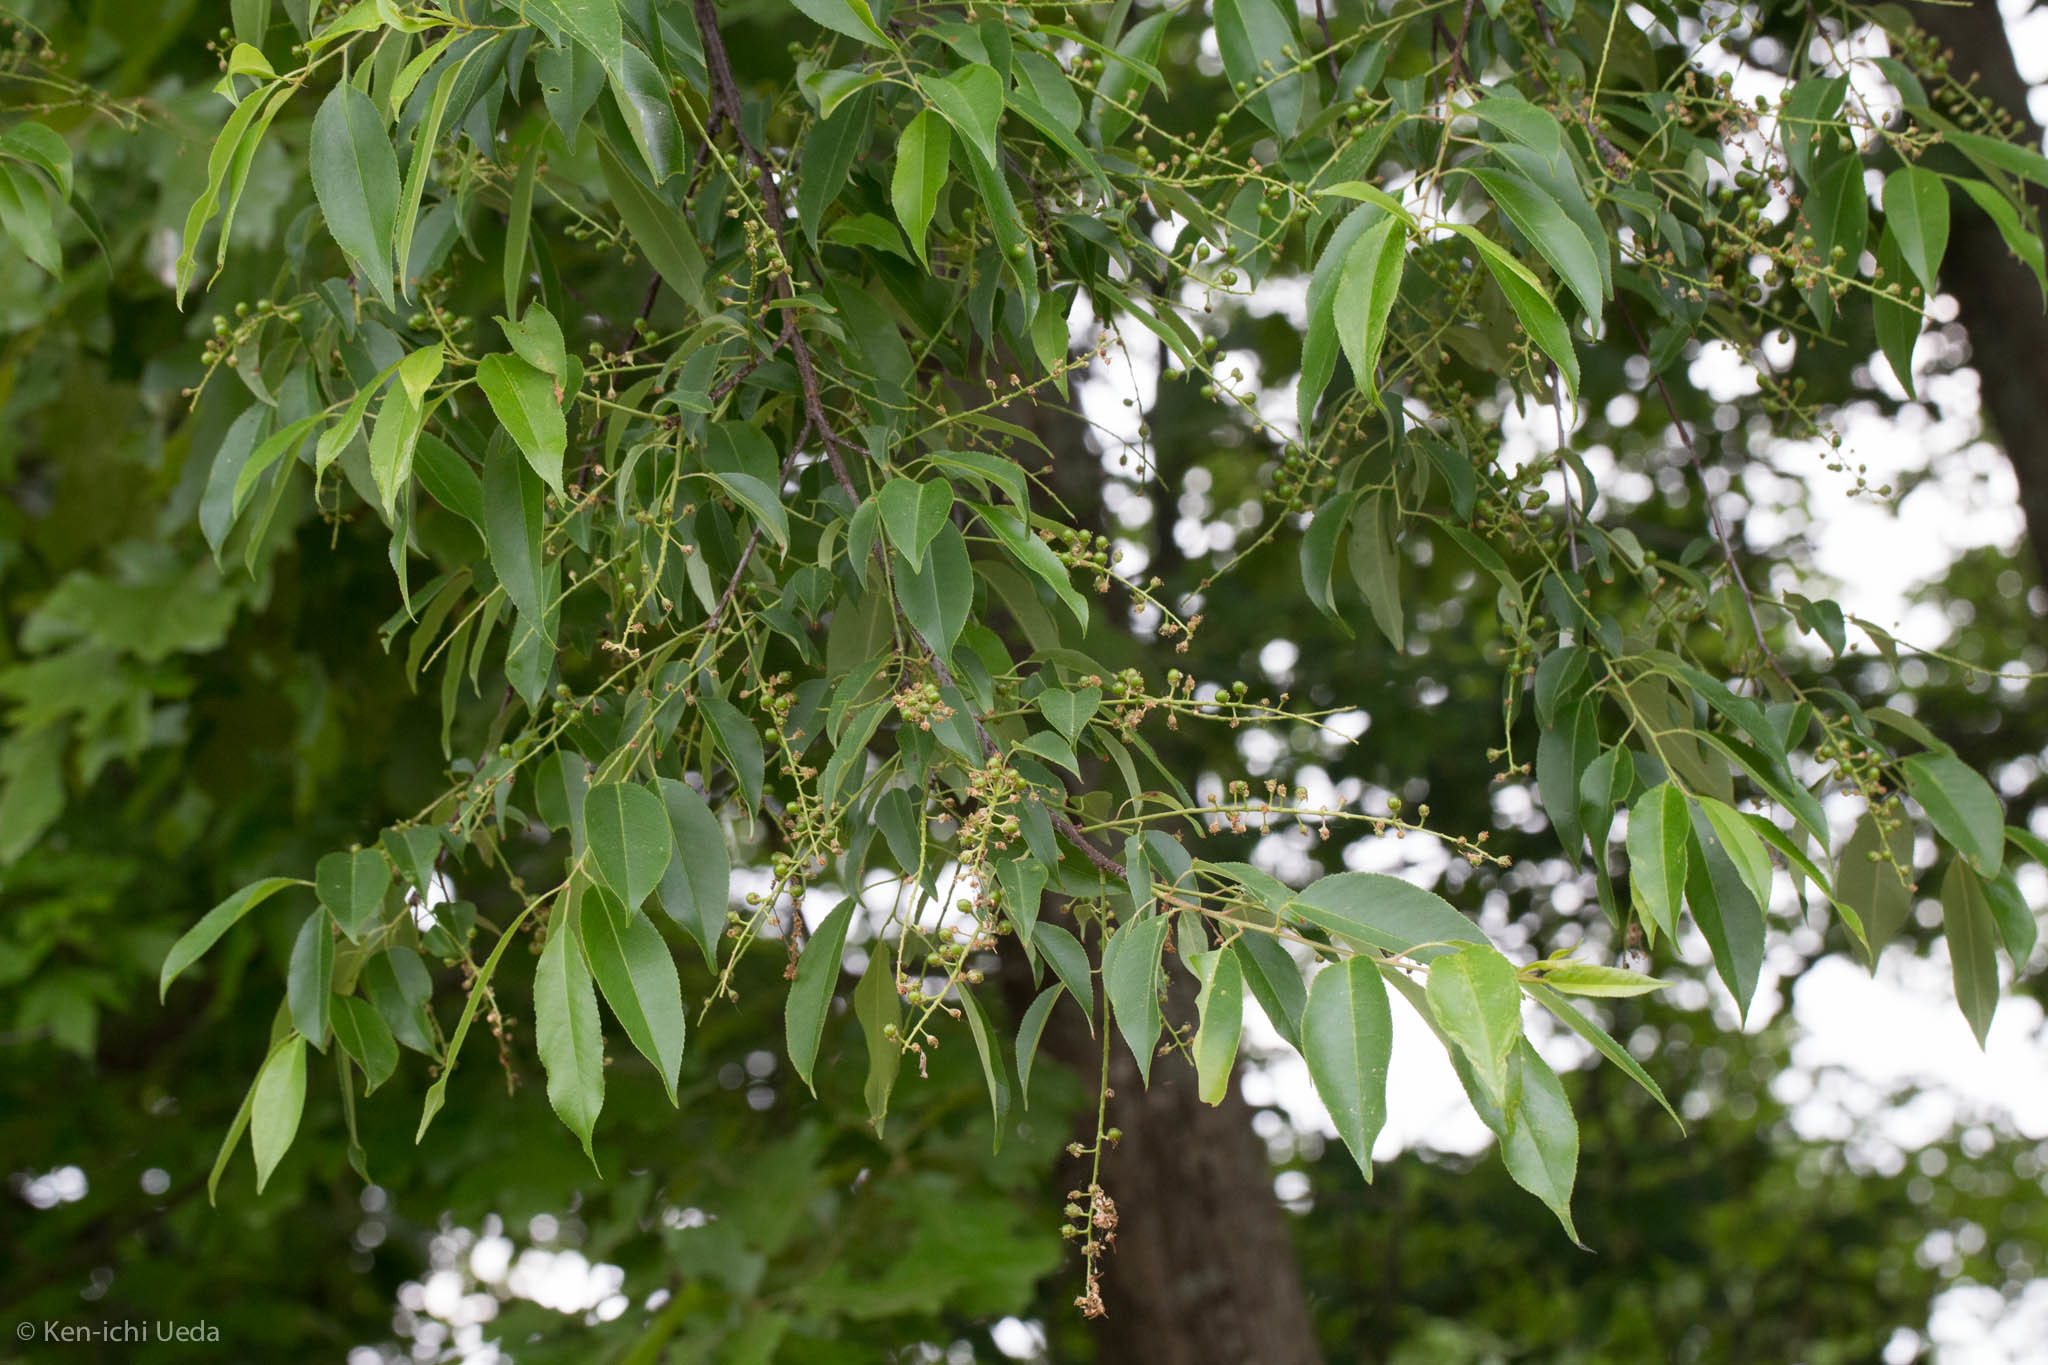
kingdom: Plantae
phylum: Tracheophyta
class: Magnoliopsida
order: Rosales
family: Rosaceae
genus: Prunus
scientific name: Prunus serotina
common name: Black cherry
